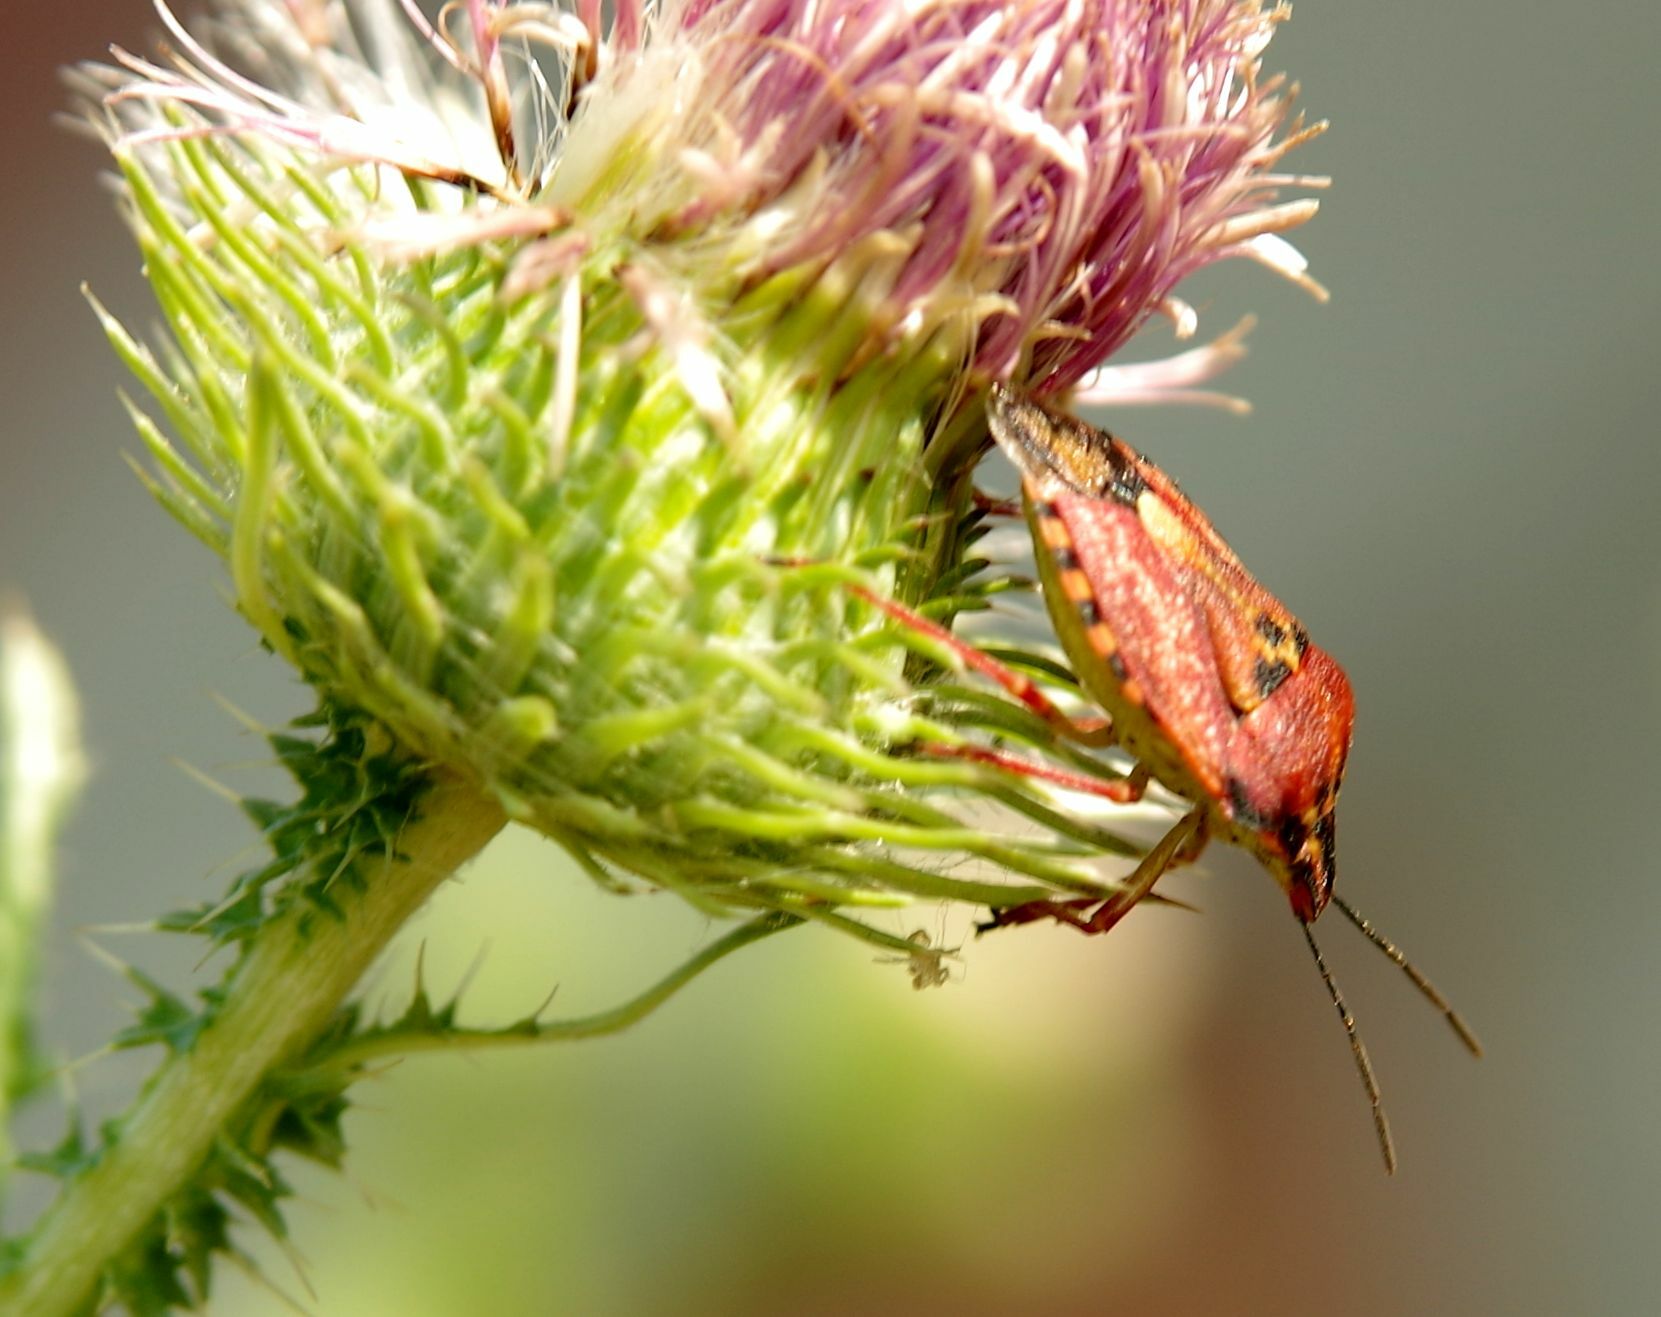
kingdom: Animalia
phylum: Arthropoda
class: Insecta
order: Hemiptera
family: Pentatomidae
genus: Carpocoris
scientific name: Carpocoris mediterraneus
